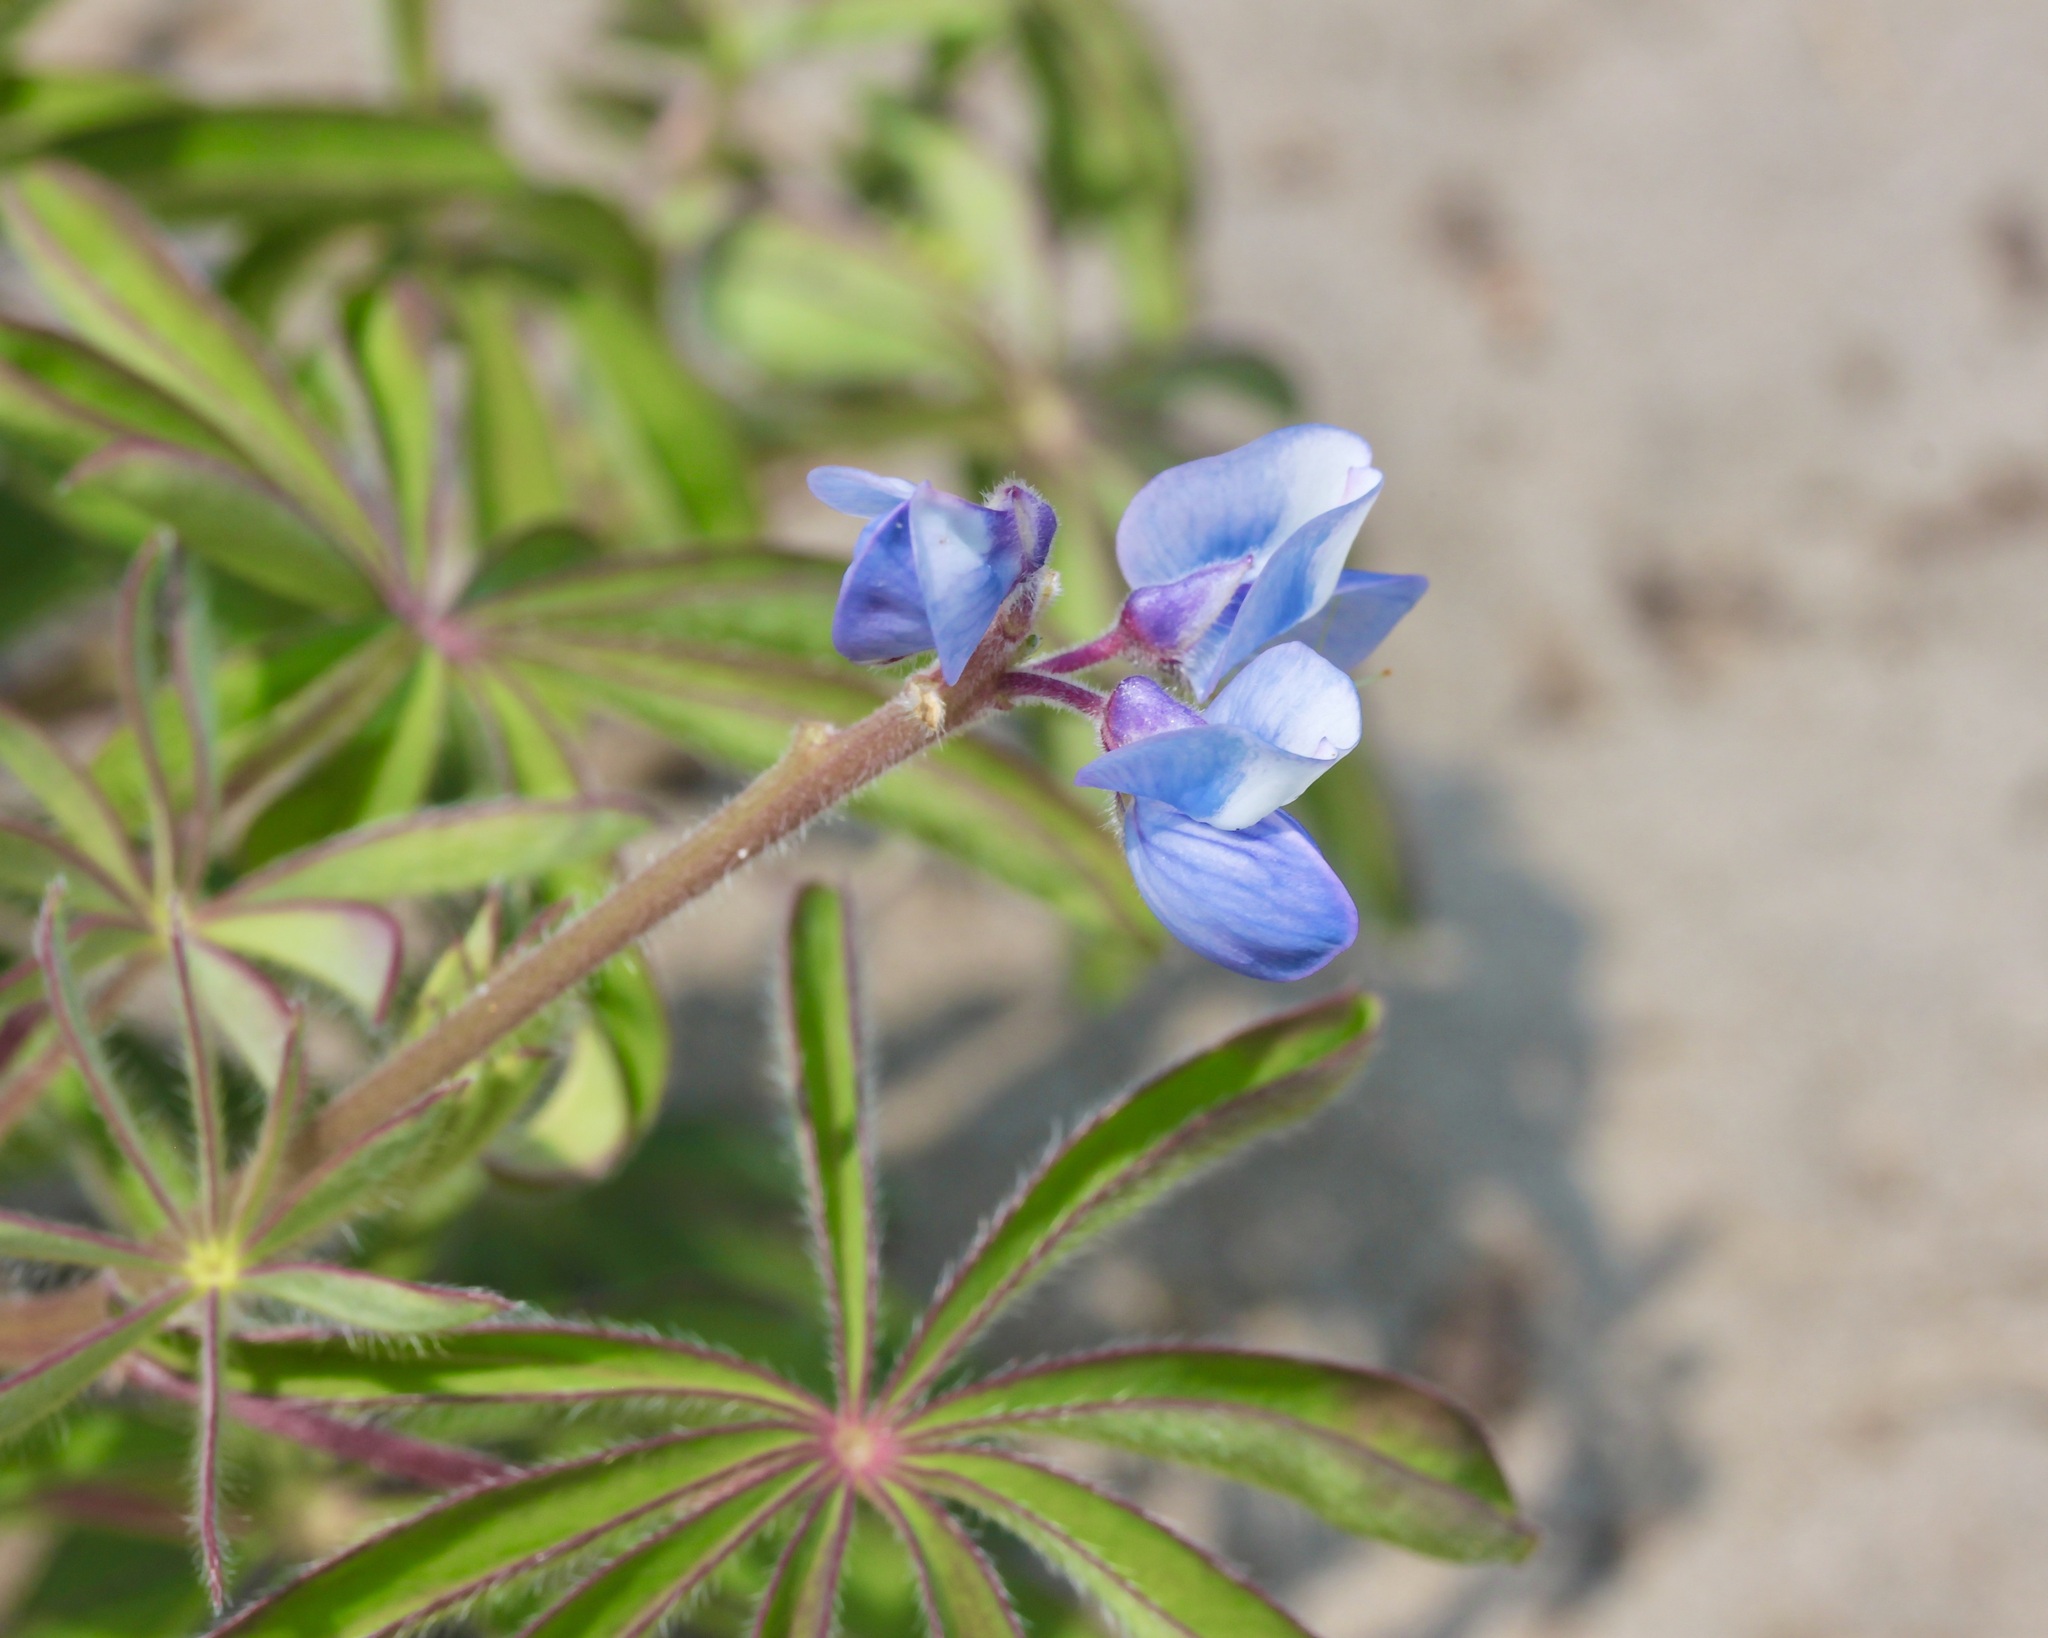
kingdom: Plantae
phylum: Tracheophyta
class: Magnoliopsida
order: Fabales
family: Fabaceae
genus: Lupinus
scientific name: Lupinus perennis
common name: Sundial lupine
